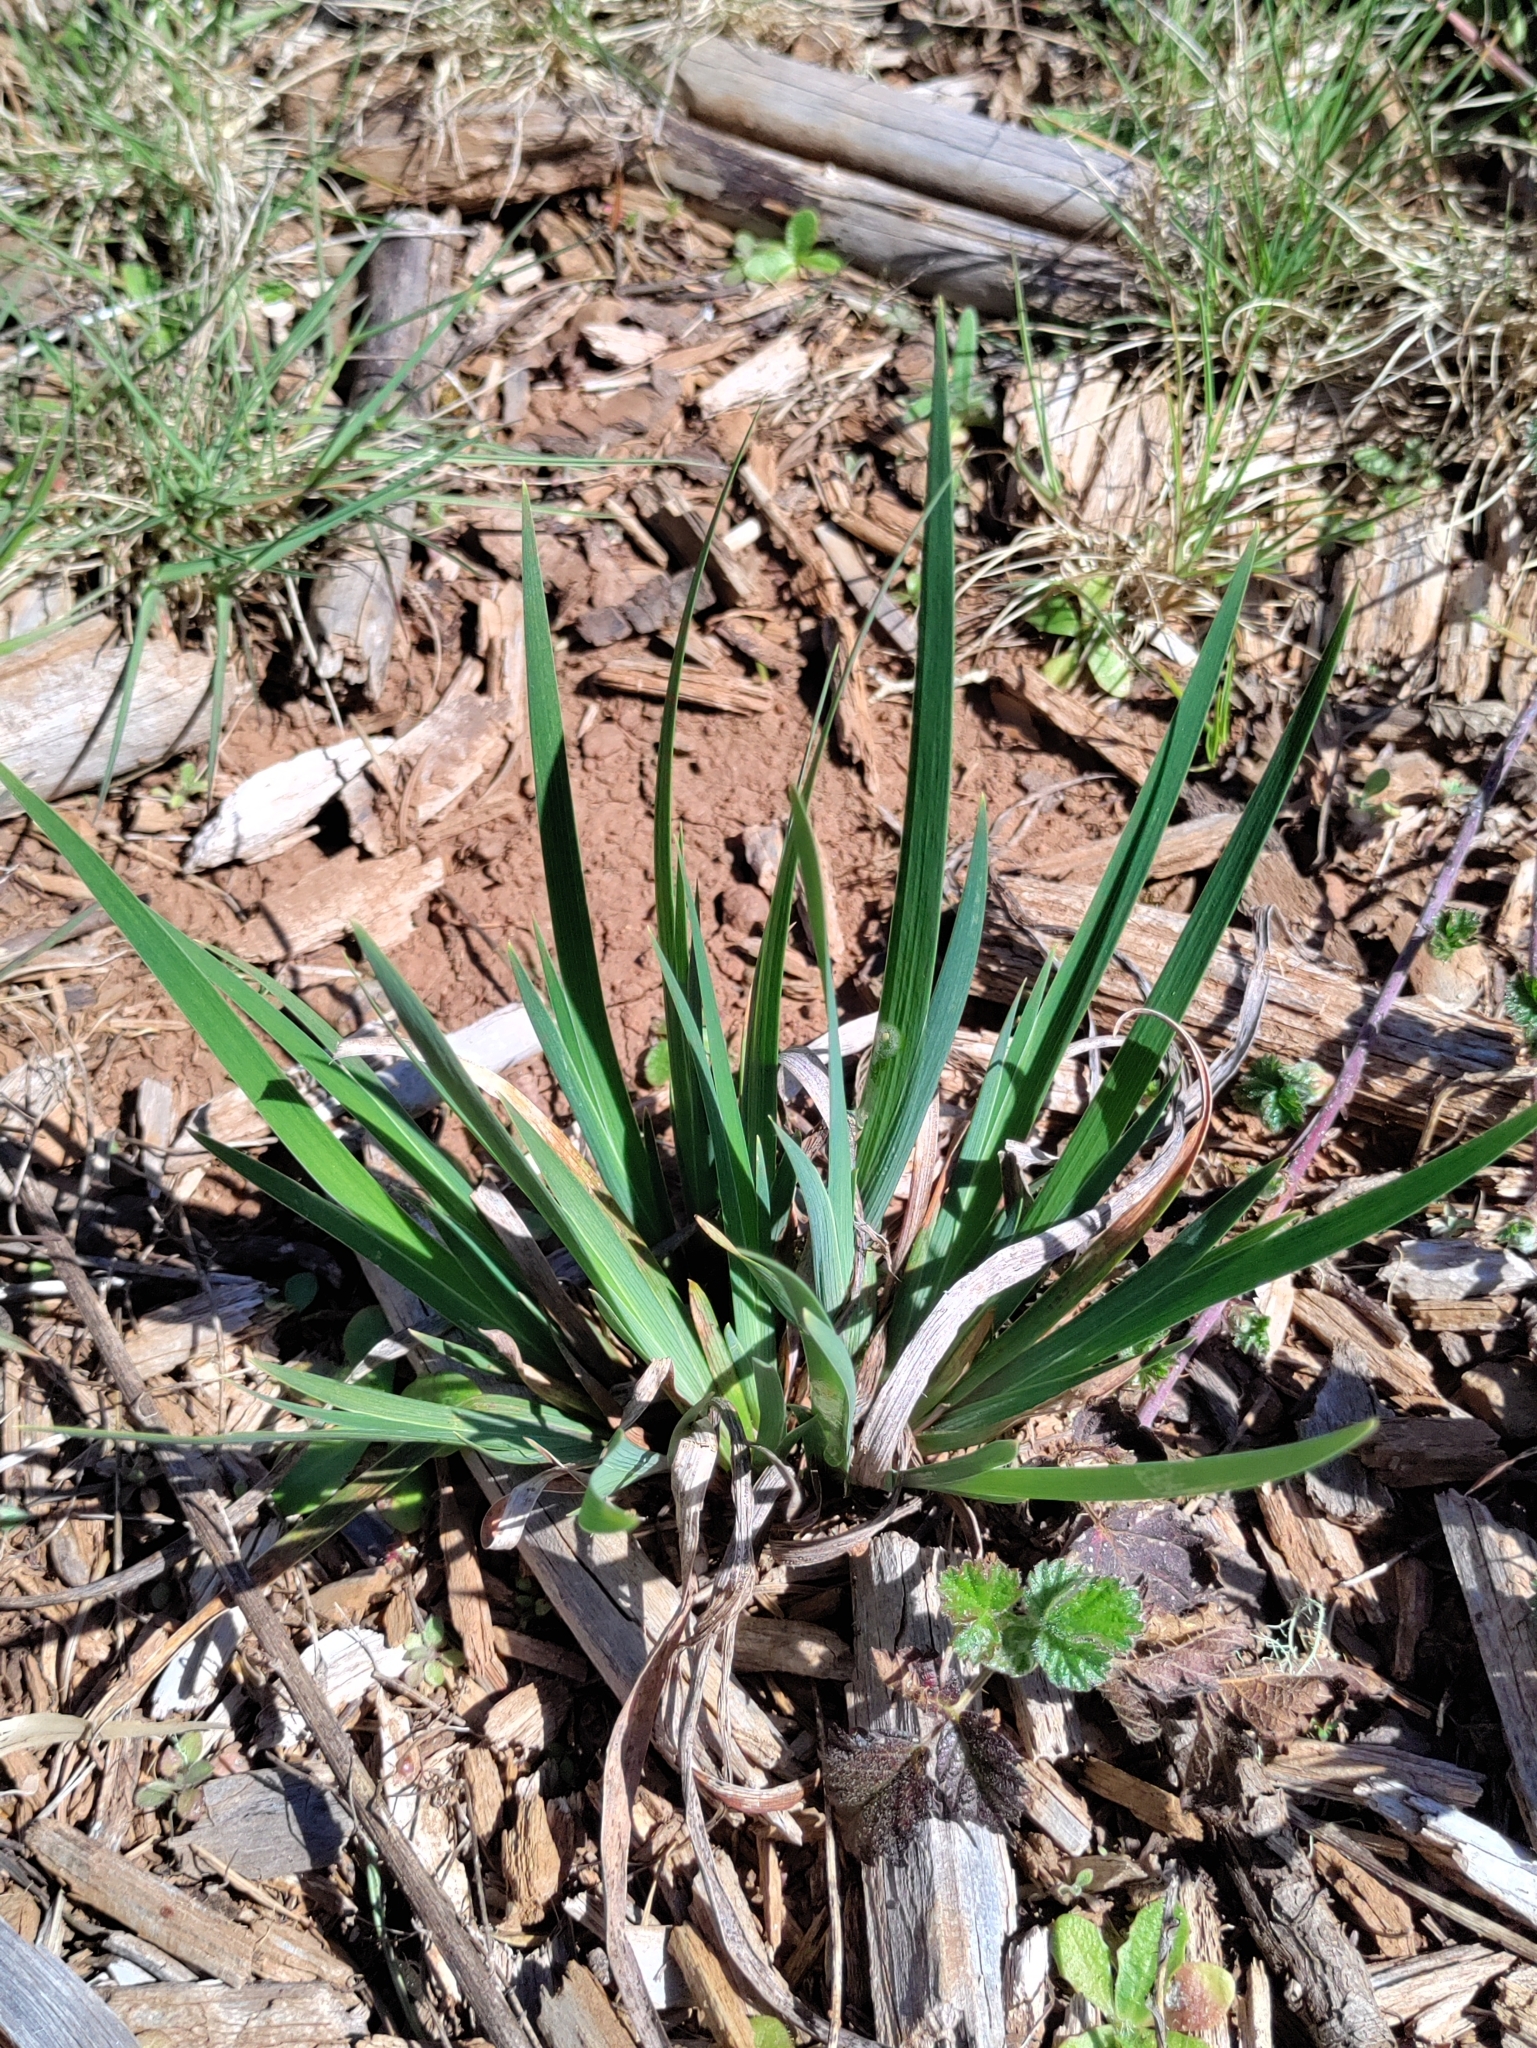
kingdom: Plantae
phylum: Tracheophyta
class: Liliopsida
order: Asparagales
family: Iridaceae
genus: Iris
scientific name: Iris tenax
